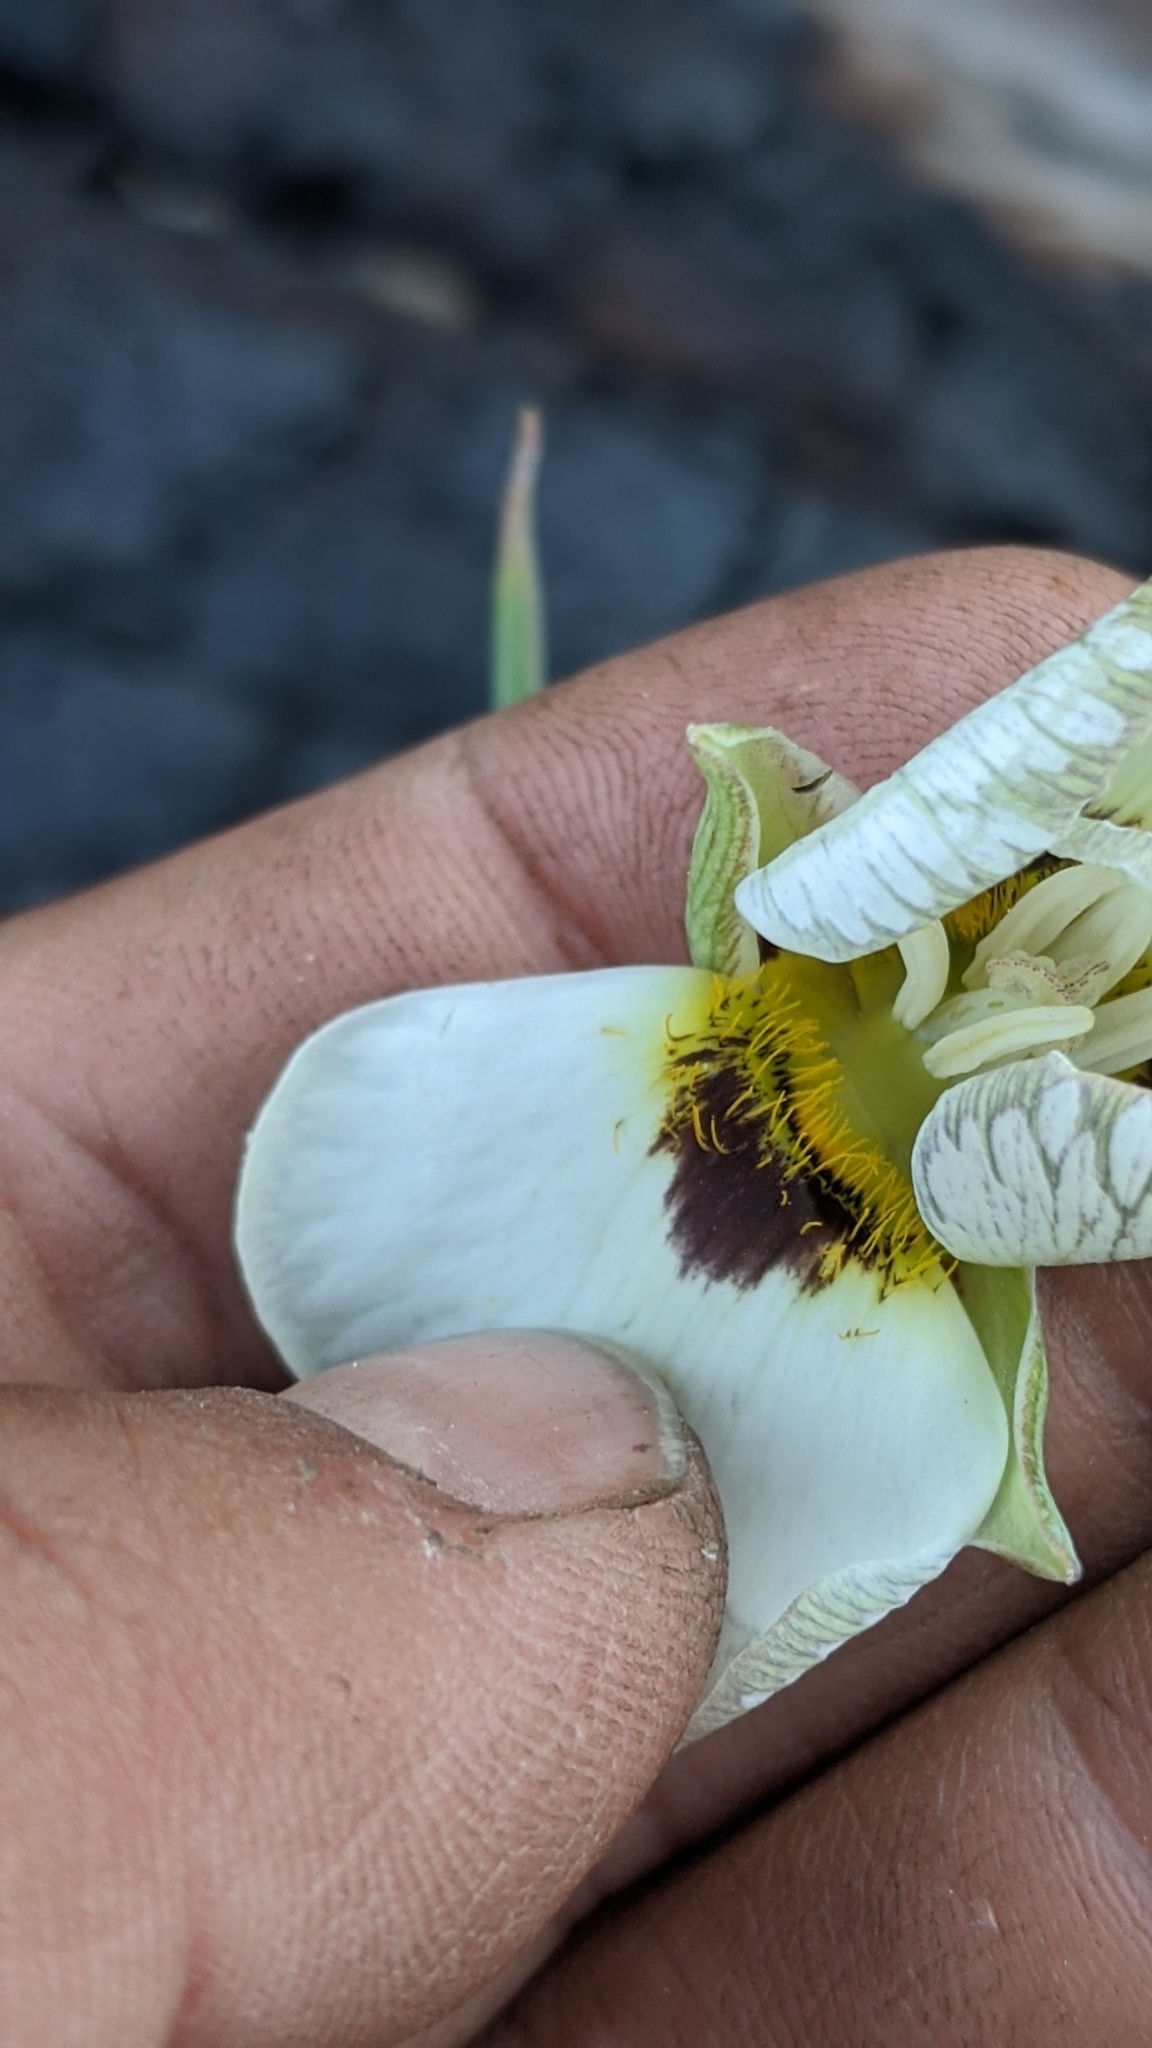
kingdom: Plantae
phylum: Tracheophyta
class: Liliopsida
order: Liliales
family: Liliaceae
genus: Calochortus
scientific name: Calochortus leichtlinii
